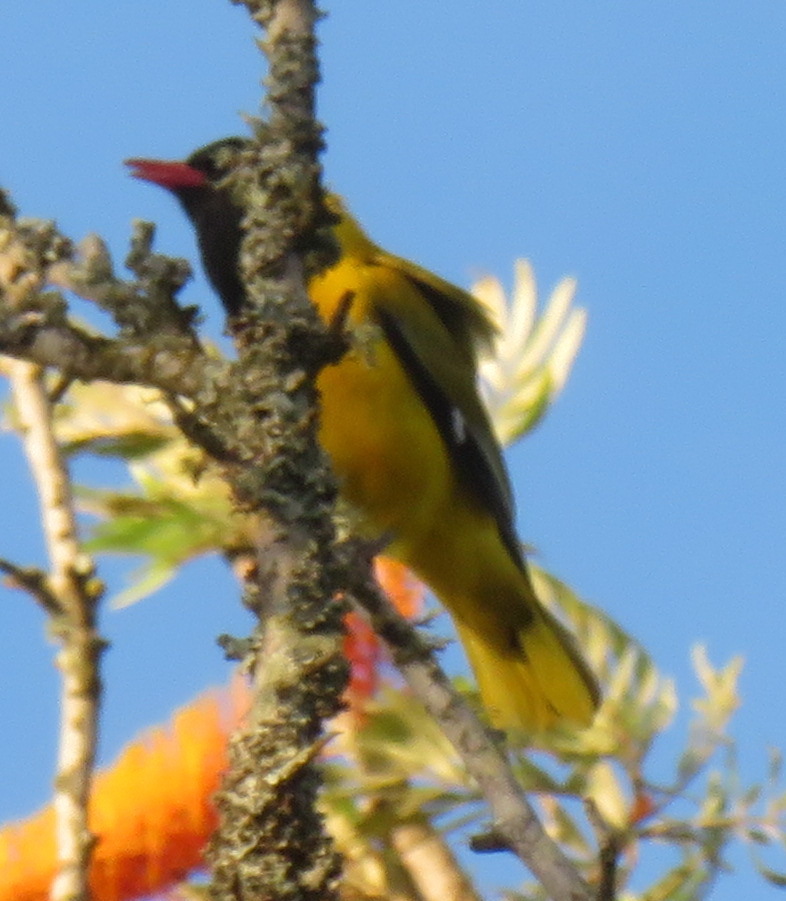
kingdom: Animalia
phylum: Chordata
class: Aves
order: Passeriformes
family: Oriolidae
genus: Oriolus
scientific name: Oriolus larvatus
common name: Black-headed oriole
